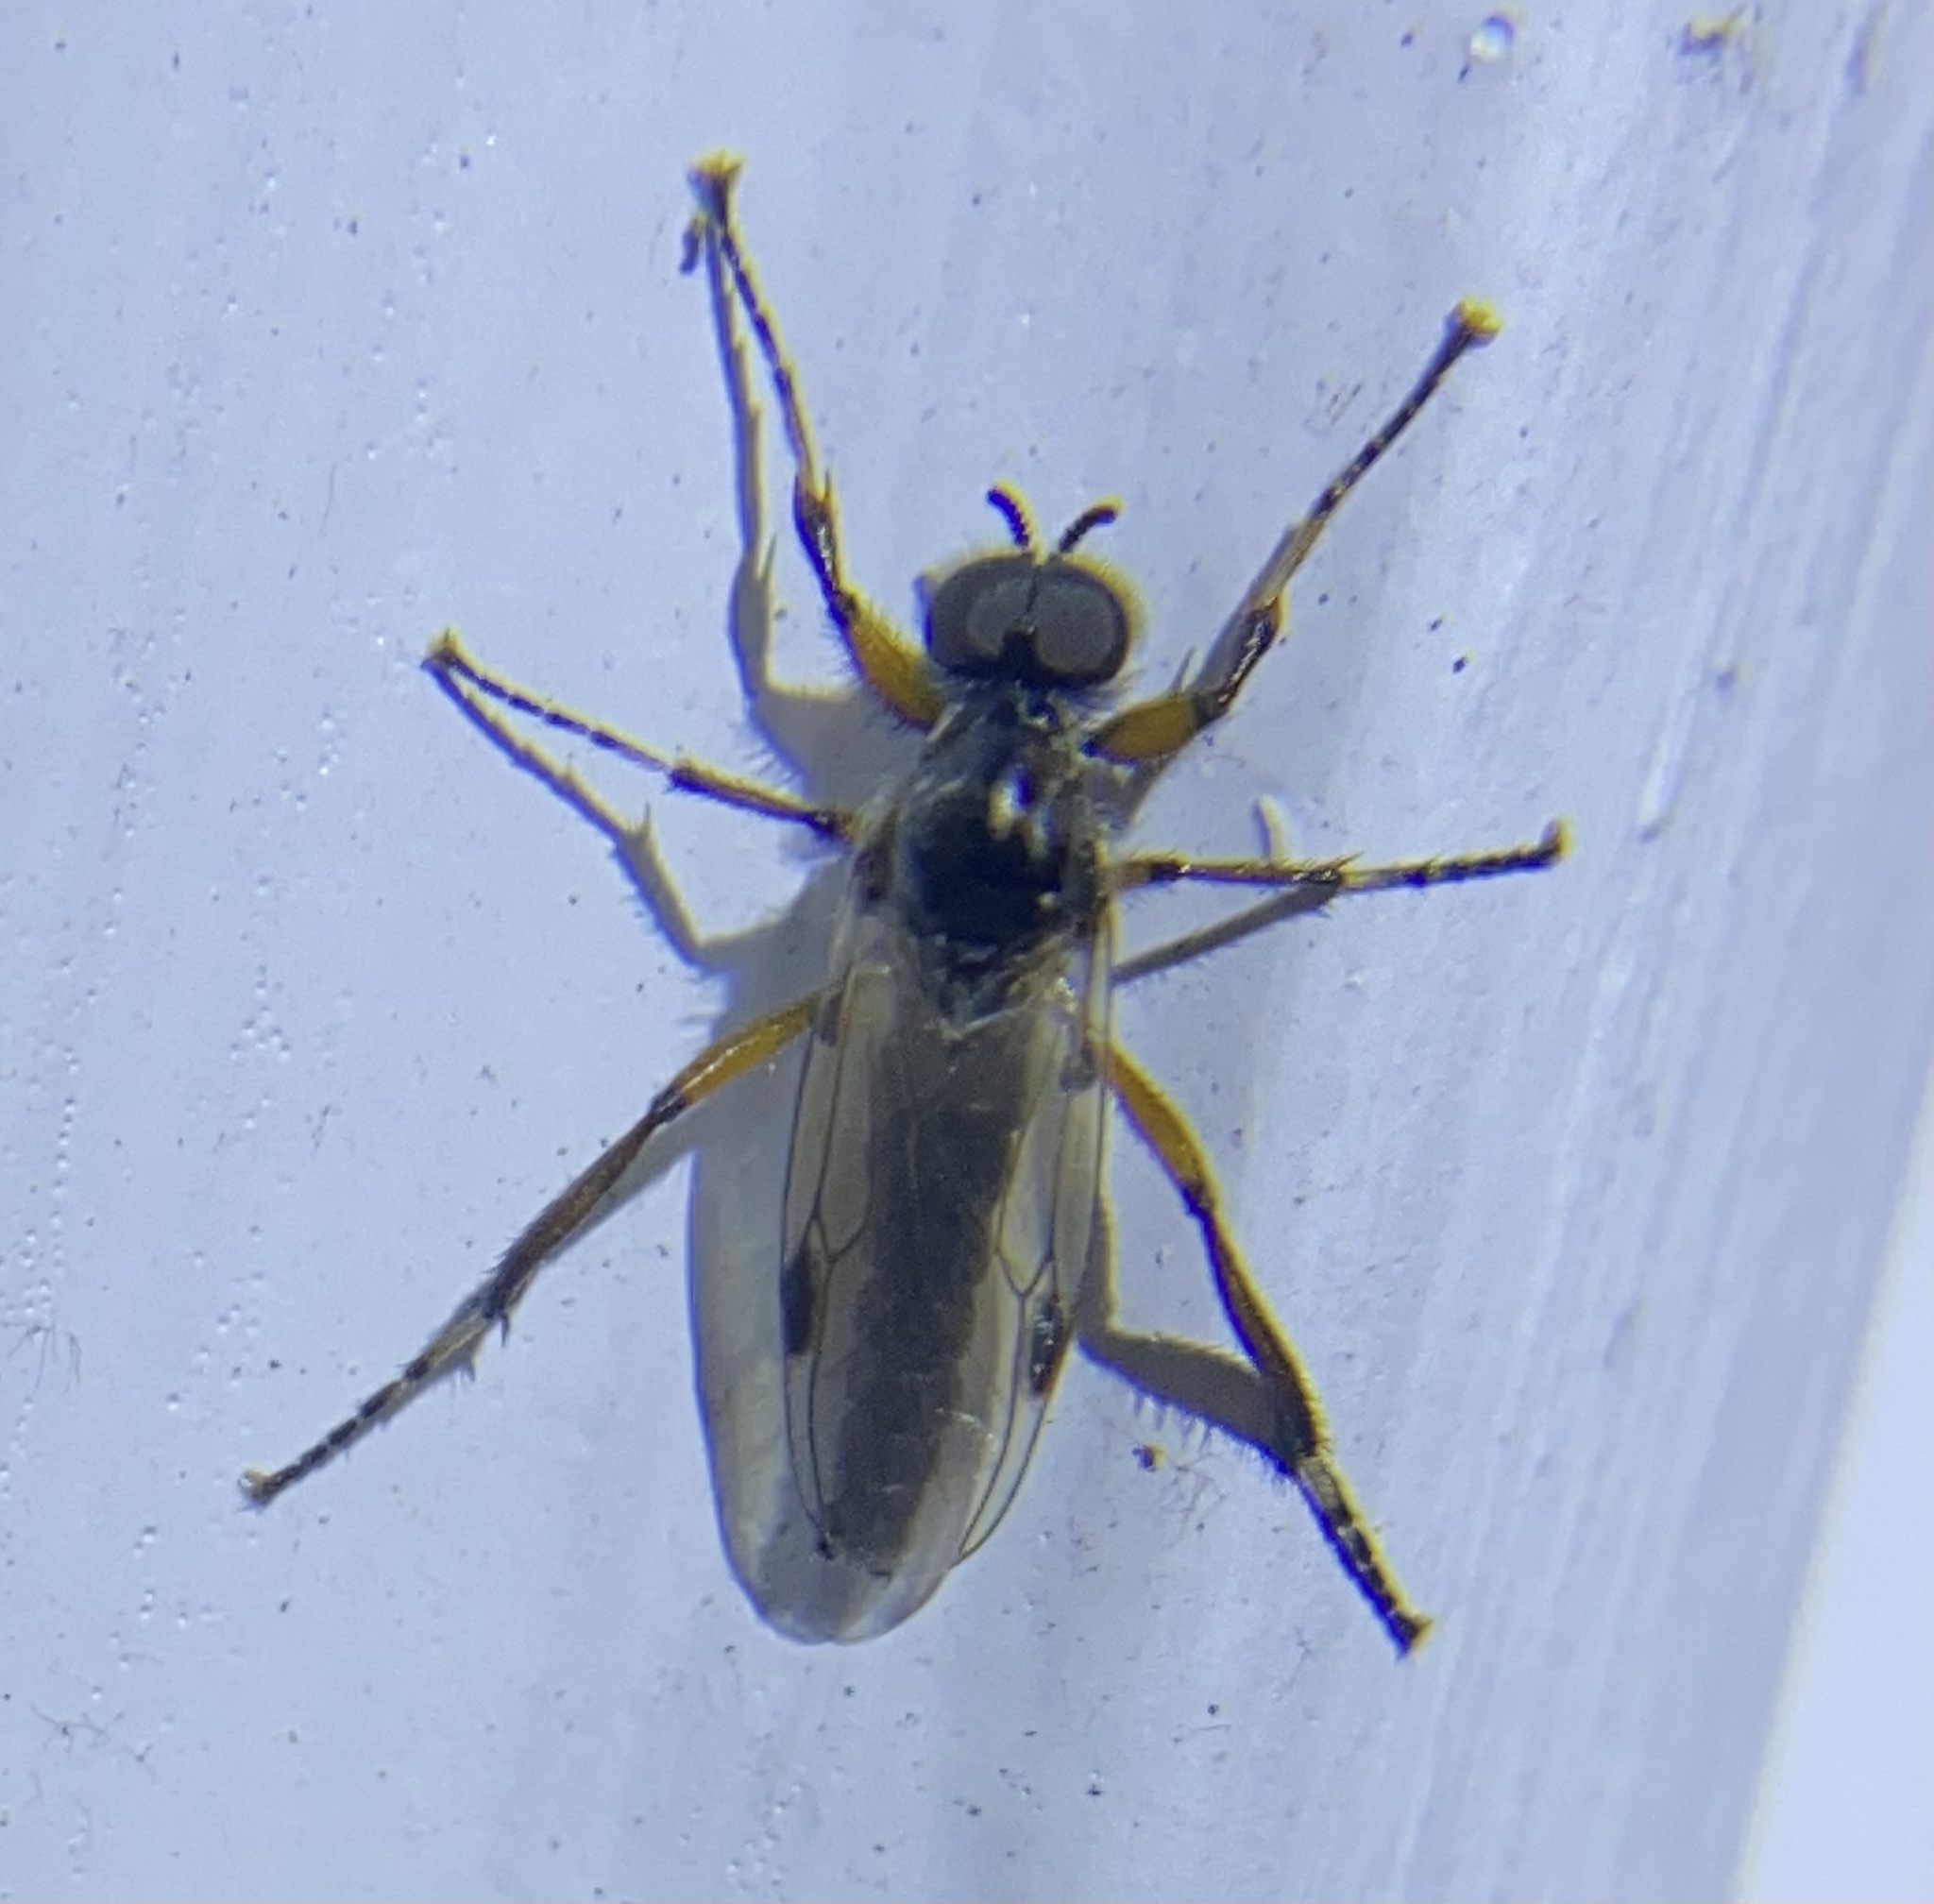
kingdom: Animalia
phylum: Arthropoda
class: Insecta
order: Diptera
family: Bibionidae
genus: Bibio
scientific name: Bibio articulatus
